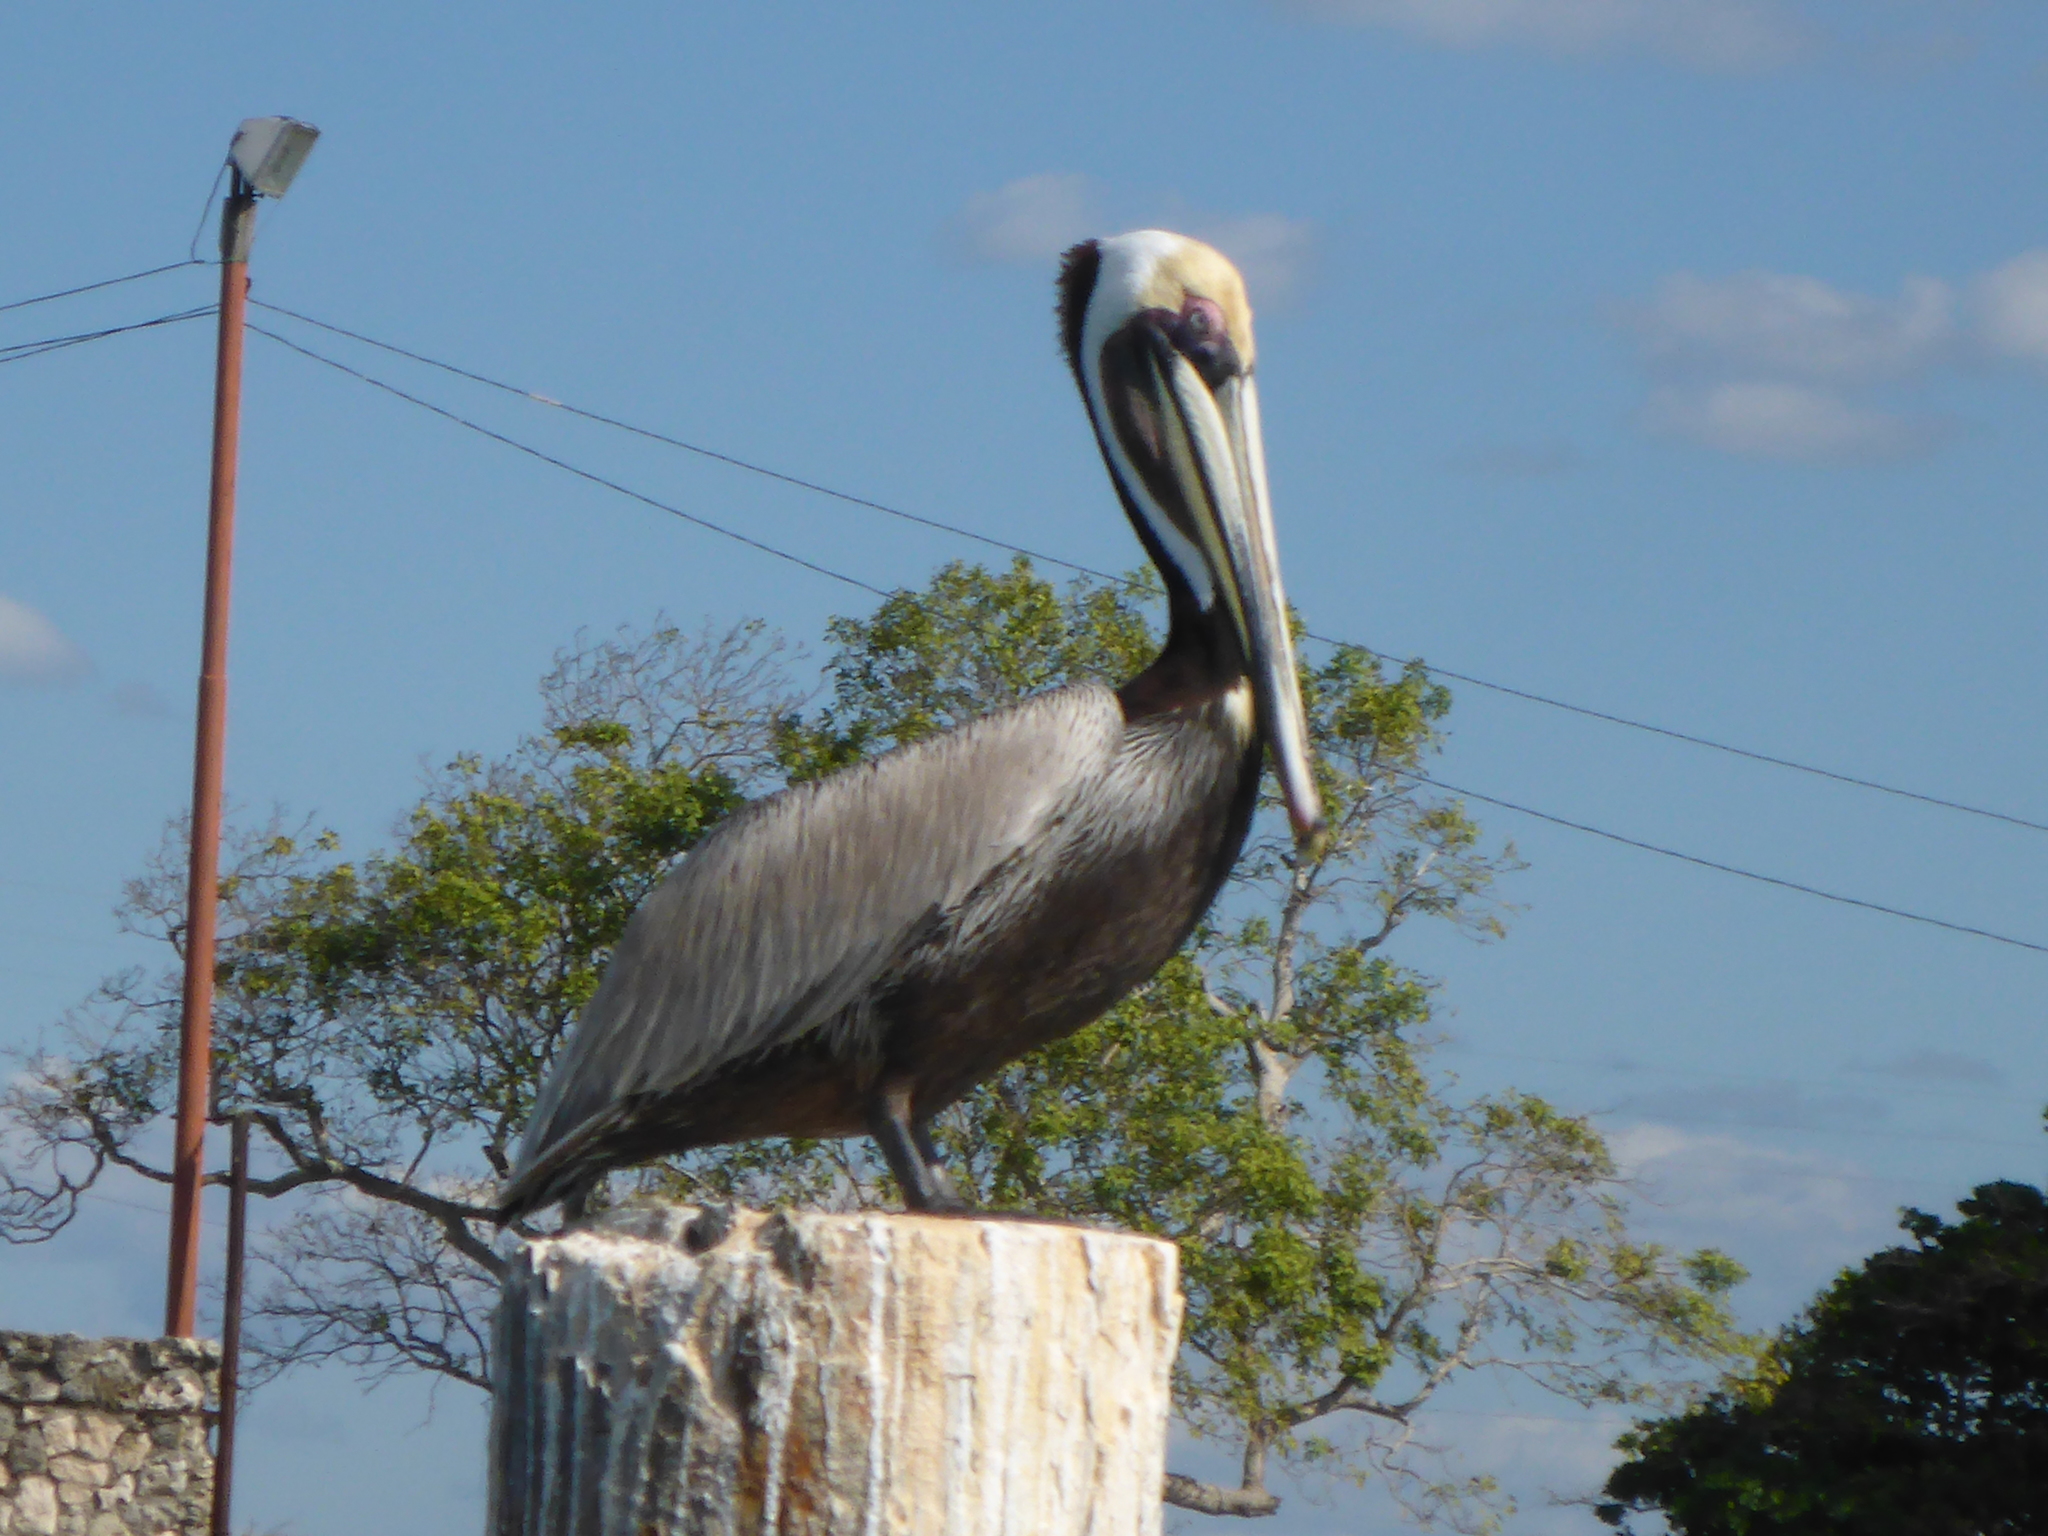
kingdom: Animalia
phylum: Chordata
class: Aves
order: Pelecaniformes
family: Pelecanidae
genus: Pelecanus
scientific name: Pelecanus occidentalis
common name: Brown pelican
